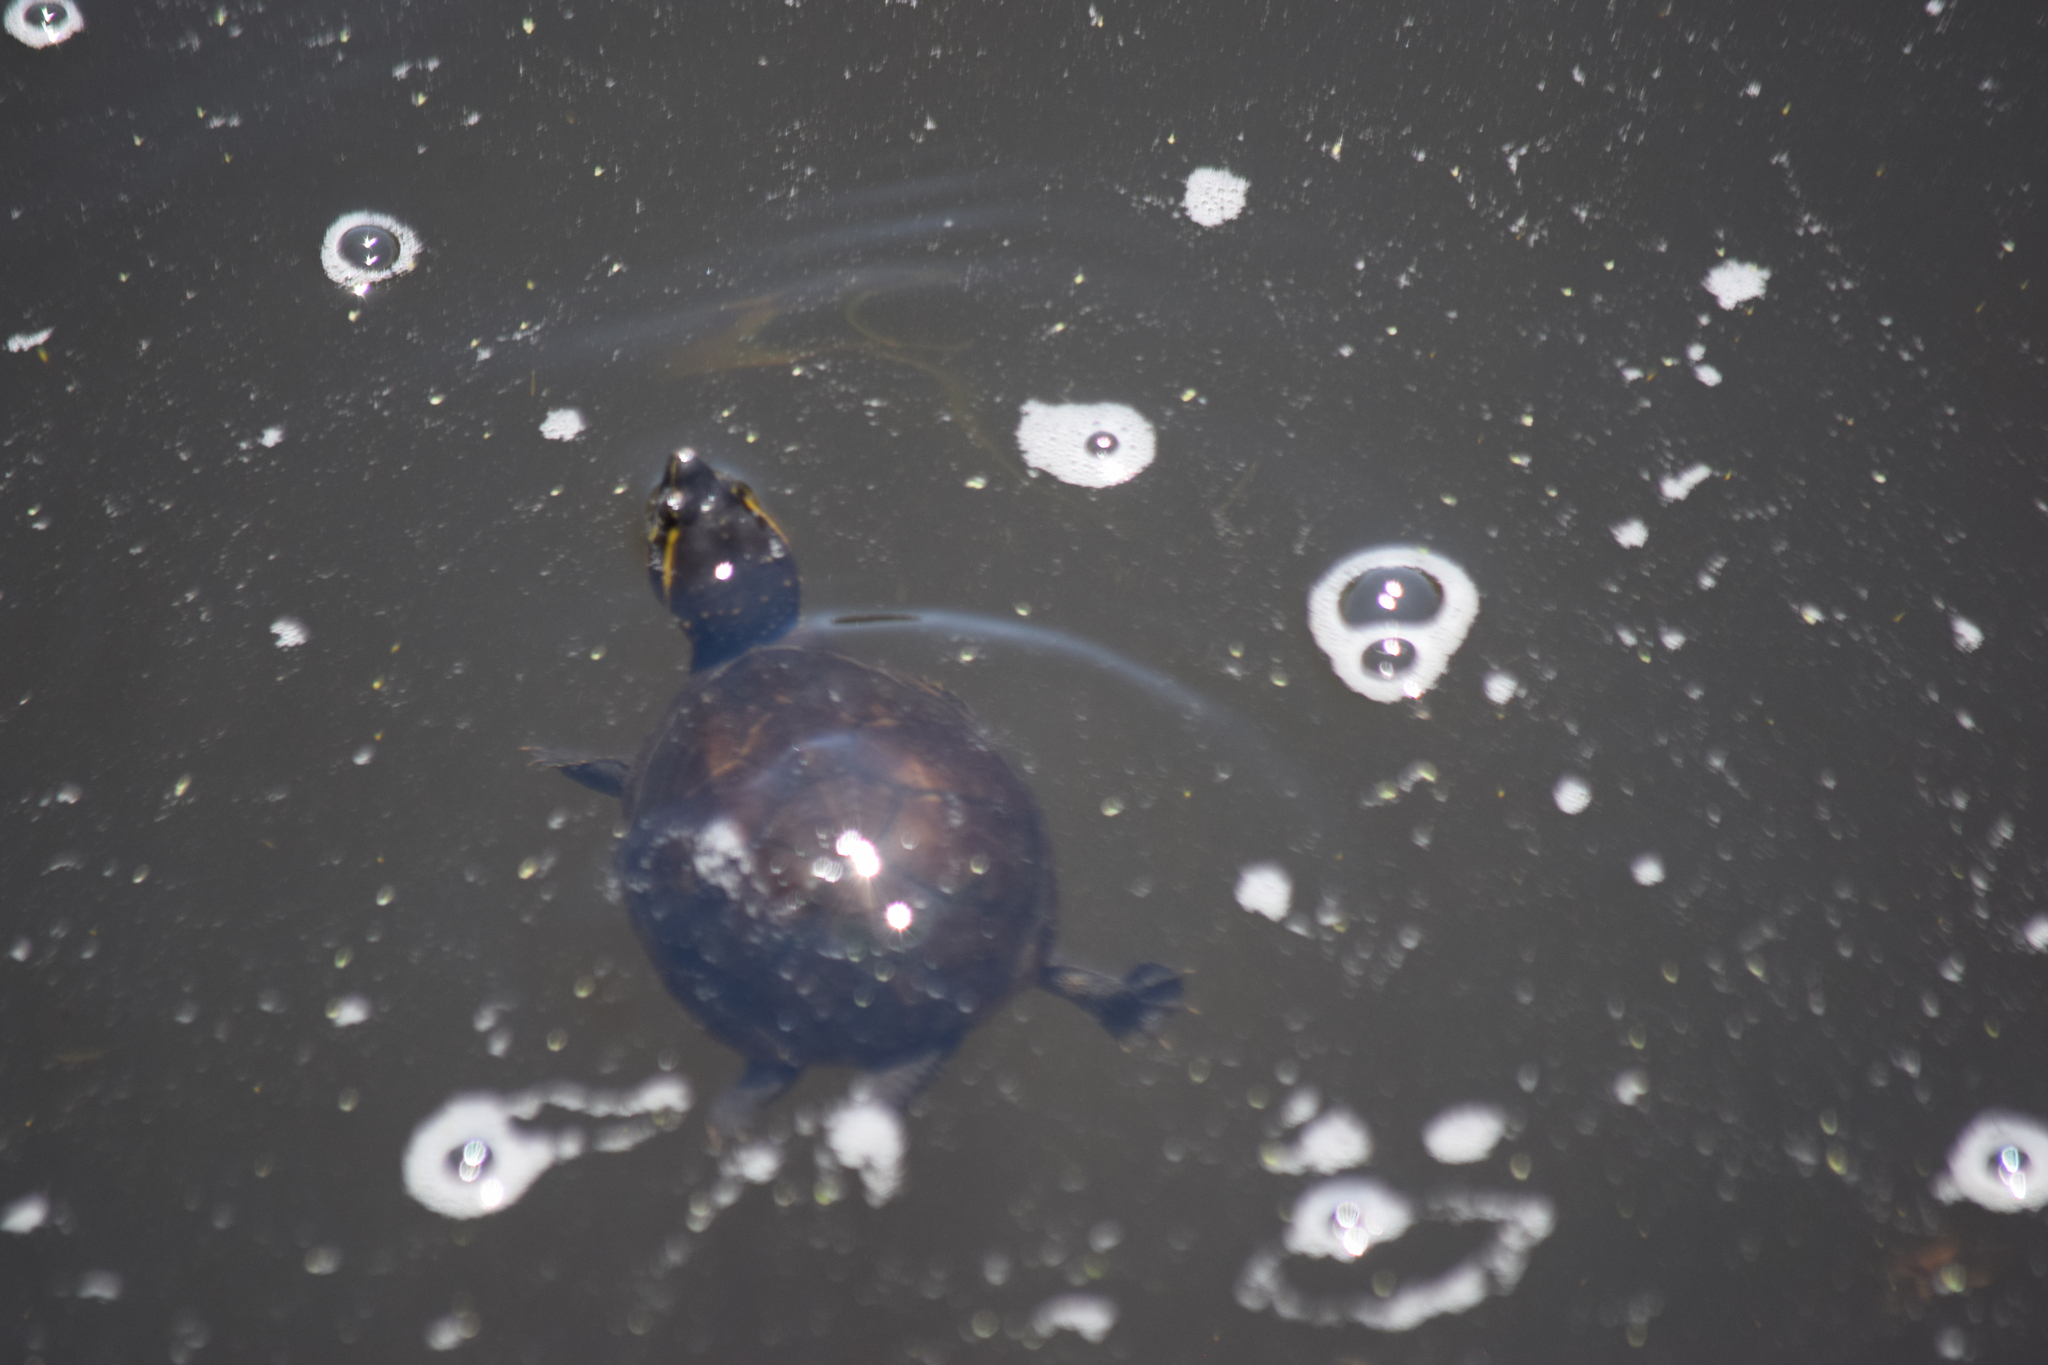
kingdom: Animalia
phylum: Chordata
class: Testudines
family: Kinosternidae
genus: Sternotherus
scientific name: Sternotherus odoratus
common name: Common musk turtle
